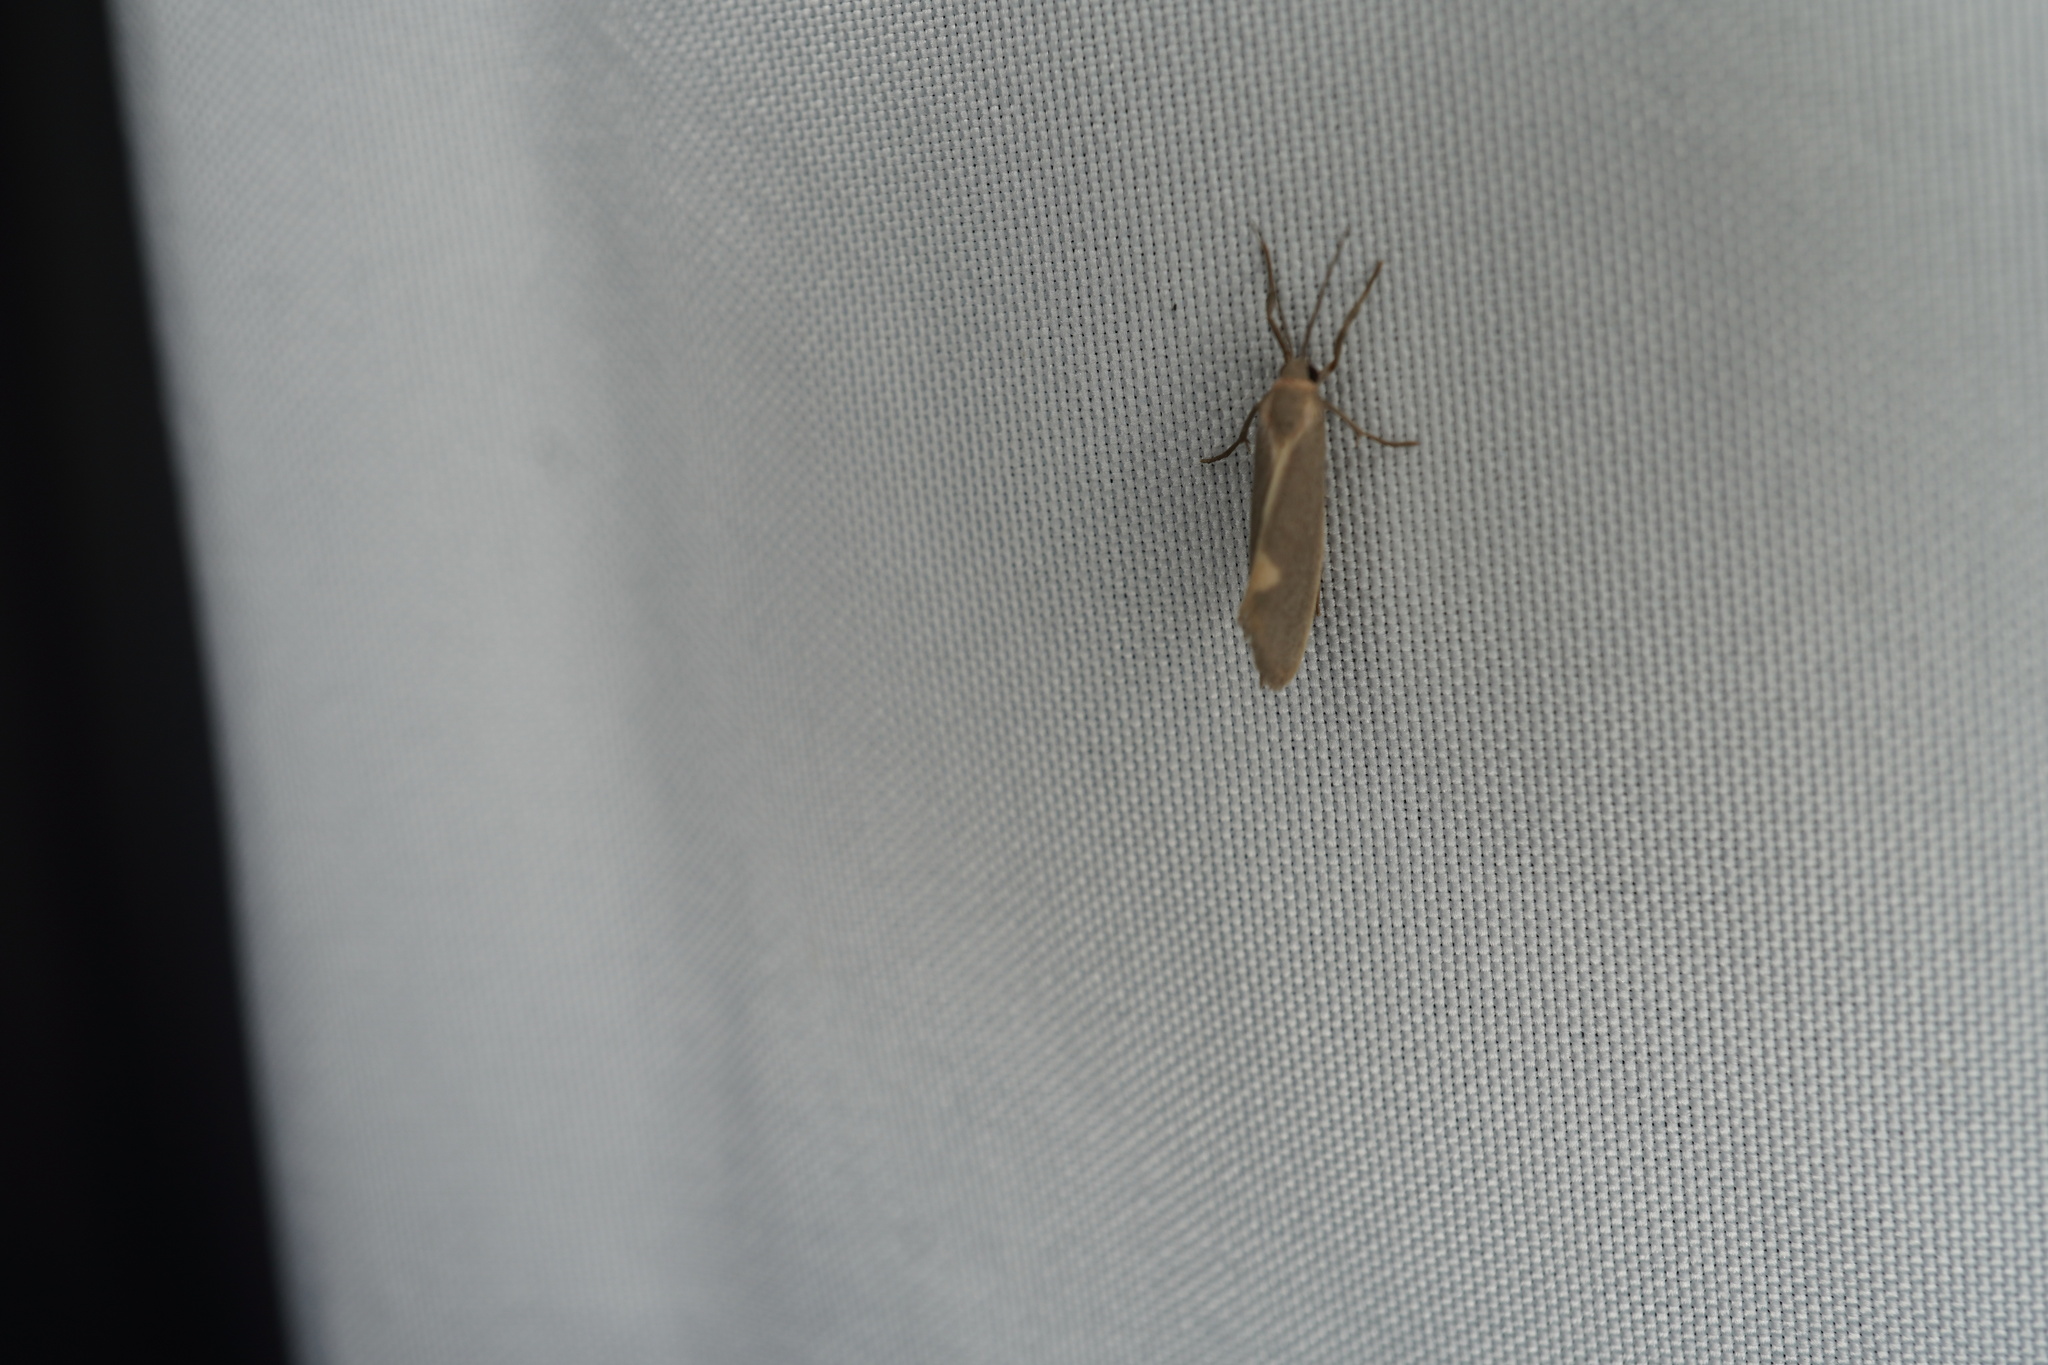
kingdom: Animalia
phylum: Arthropoda
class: Insecta
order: Lepidoptera
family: Erebidae
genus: Cisthene
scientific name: Cisthene plumbea
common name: Lead colored lichen moth
